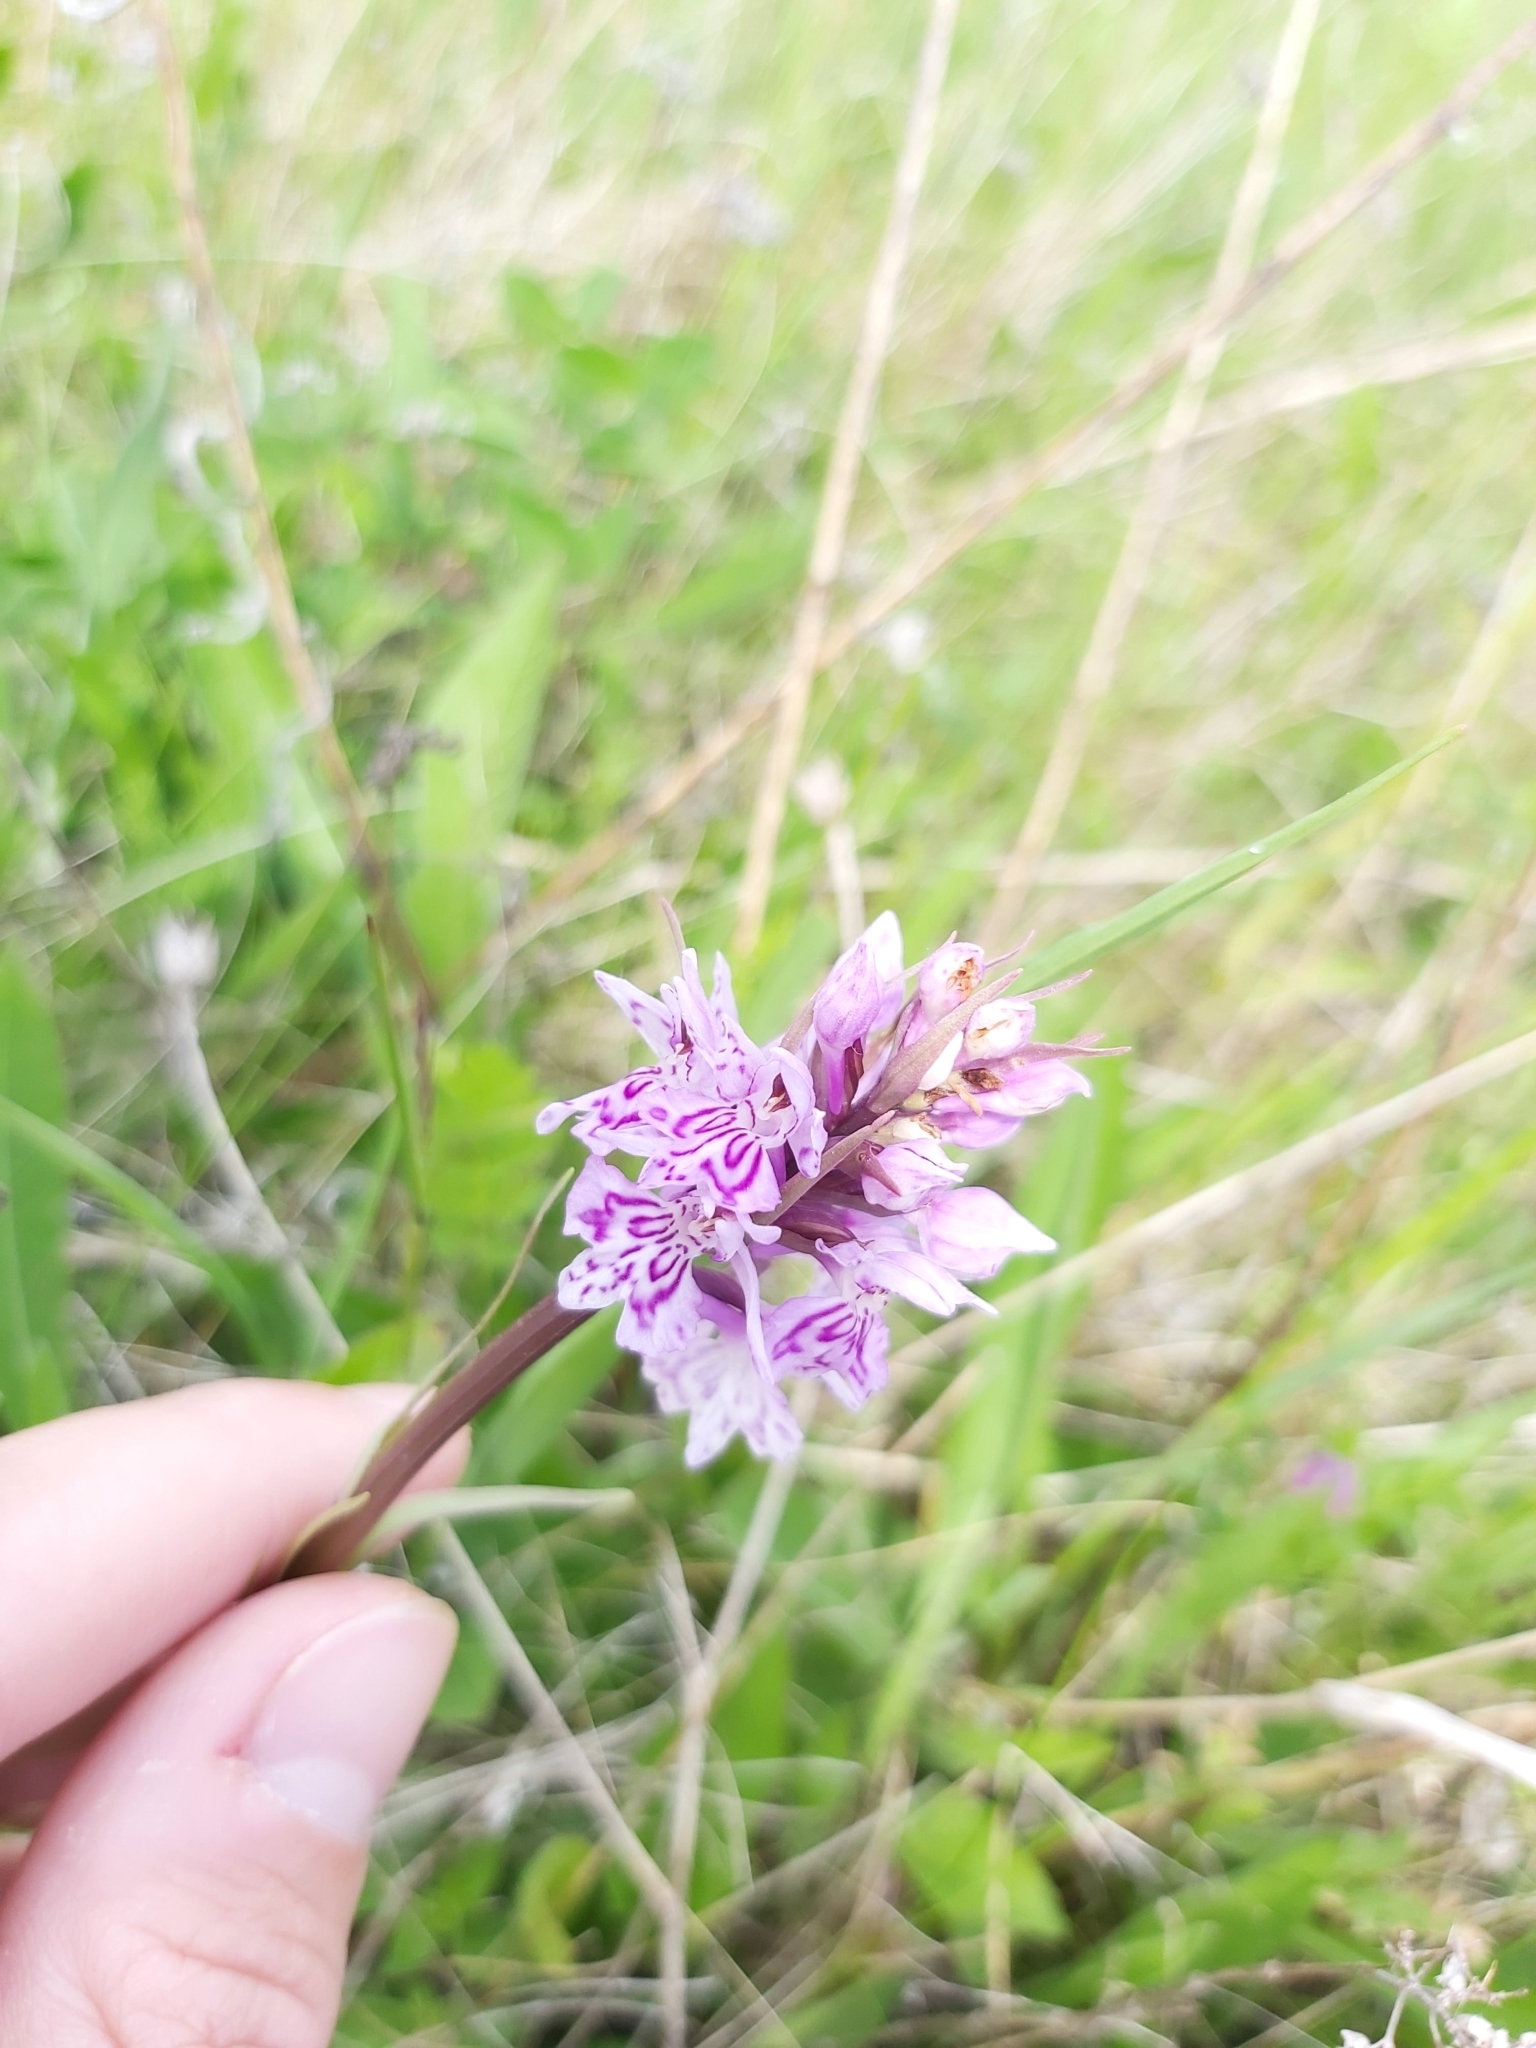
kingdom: Plantae
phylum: Tracheophyta
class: Liliopsida
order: Asparagales
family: Orchidaceae
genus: Dactylorhiza
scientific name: Dactylorhiza maculata
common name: Heath spotted-orchid
